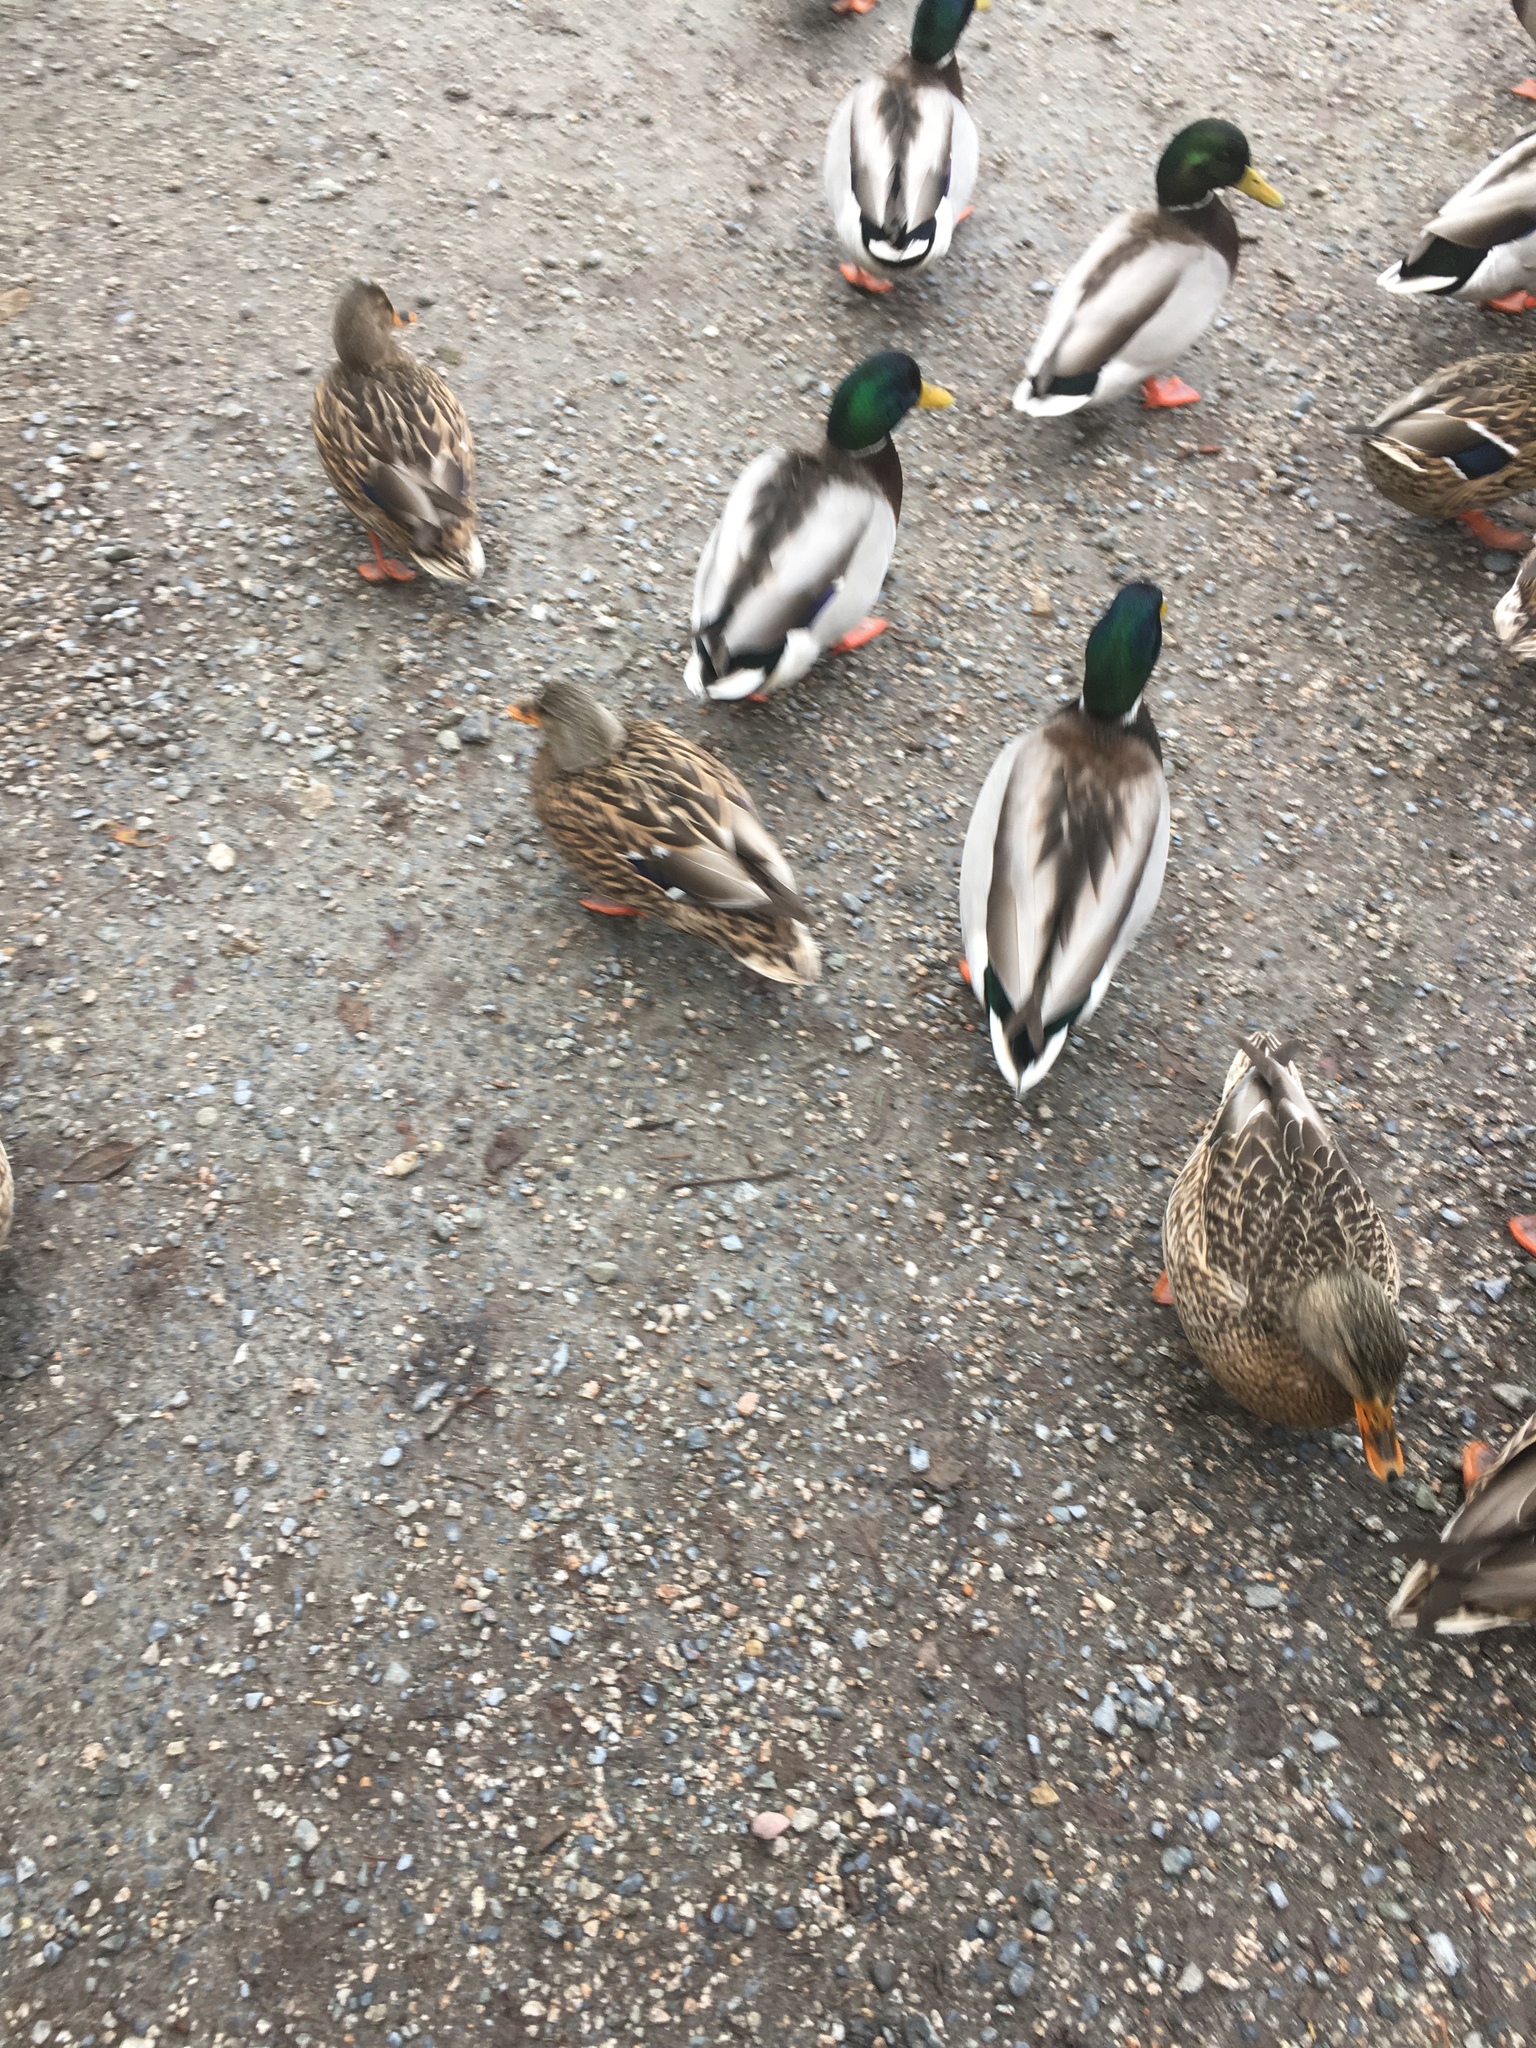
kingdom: Animalia
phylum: Chordata
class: Aves
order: Anseriformes
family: Anatidae
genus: Anas
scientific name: Anas platyrhynchos
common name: Mallard
